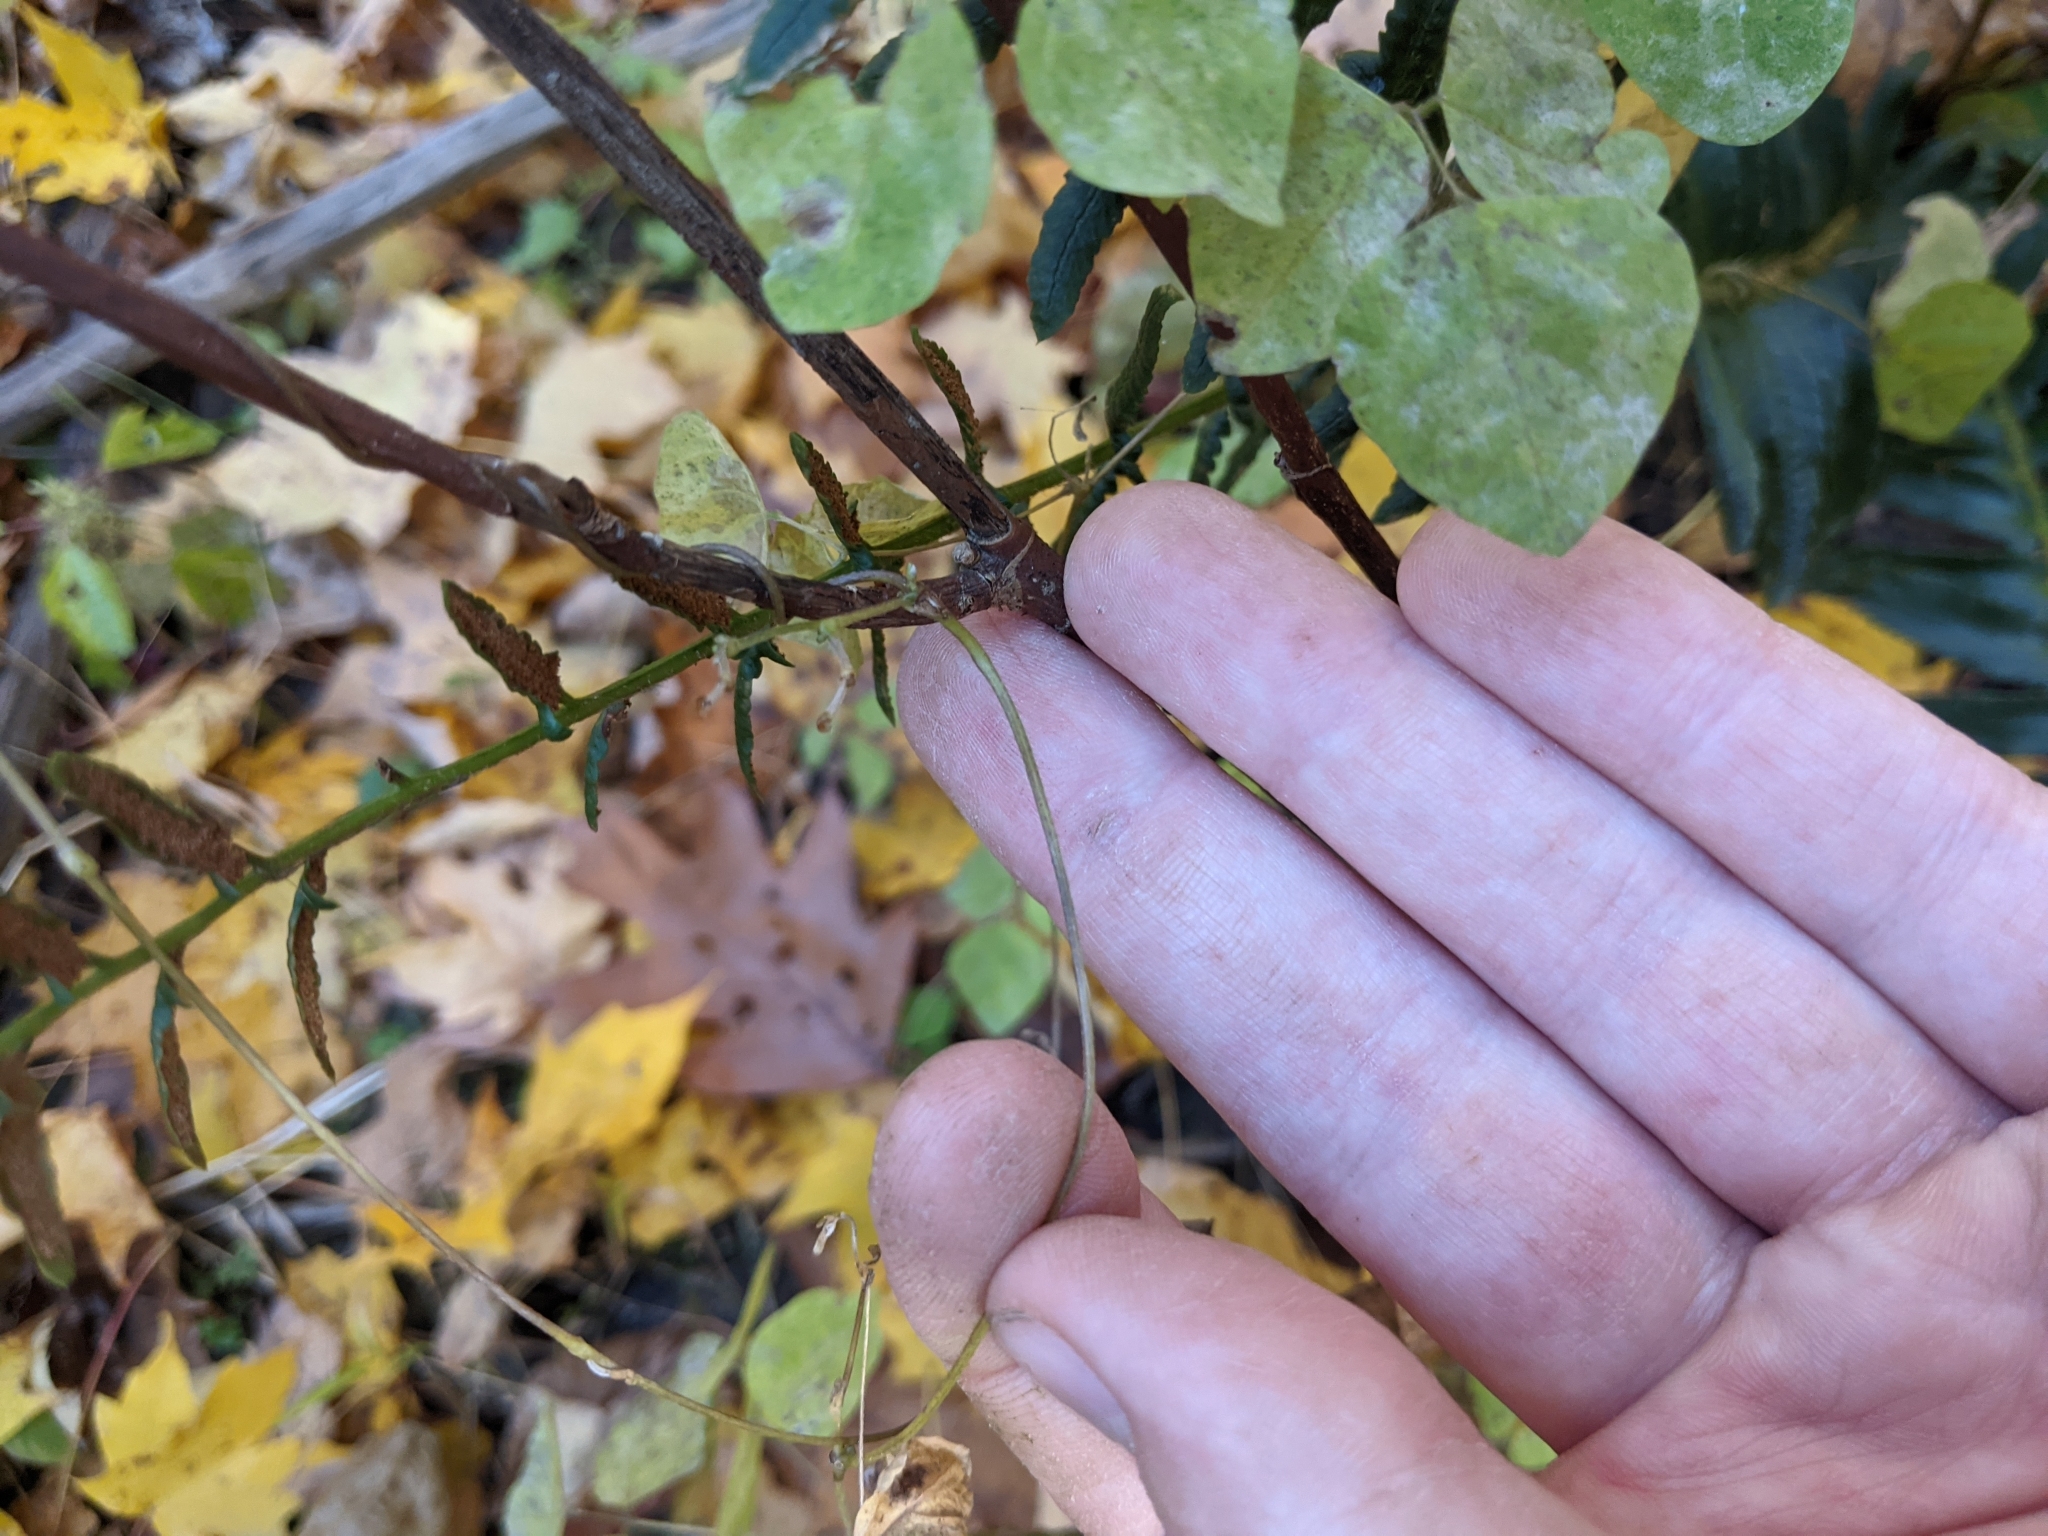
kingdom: Plantae
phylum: Tracheophyta
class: Magnoliopsida
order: Fabales
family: Fabaceae
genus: Amphicarpaea
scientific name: Amphicarpaea bracteata
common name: American hog peanut
